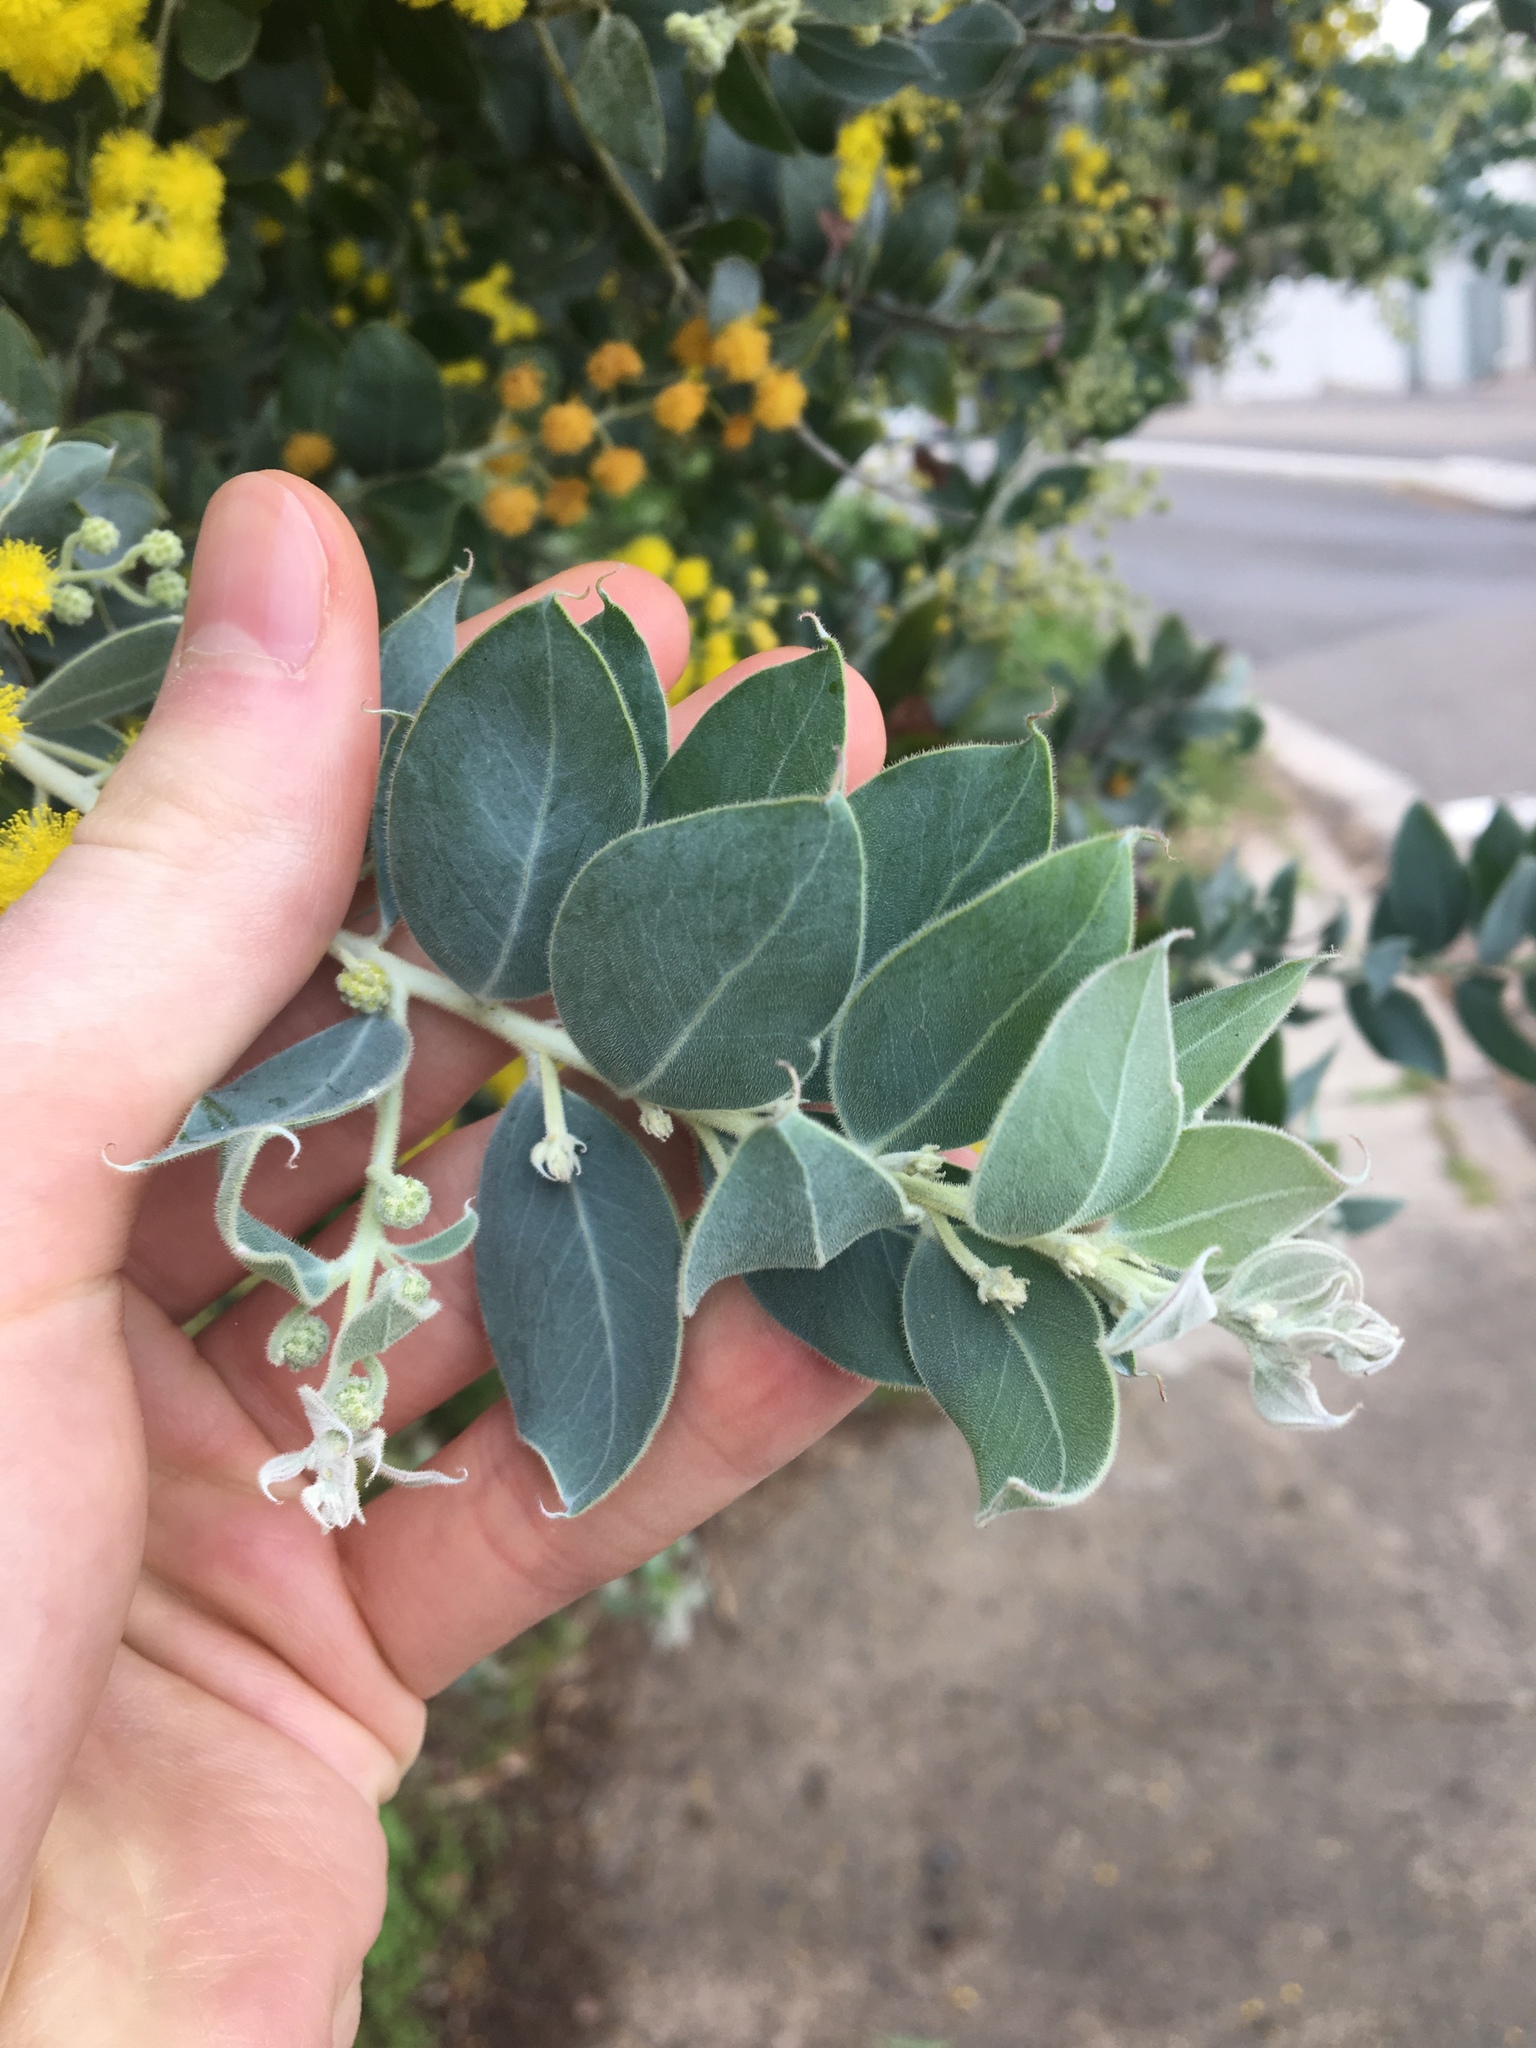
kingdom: Plantae
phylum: Tracheophyta
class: Magnoliopsida
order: Fabales
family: Fabaceae
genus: Acacia
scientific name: Acacia podalyriifolia
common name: Pearl wattle
